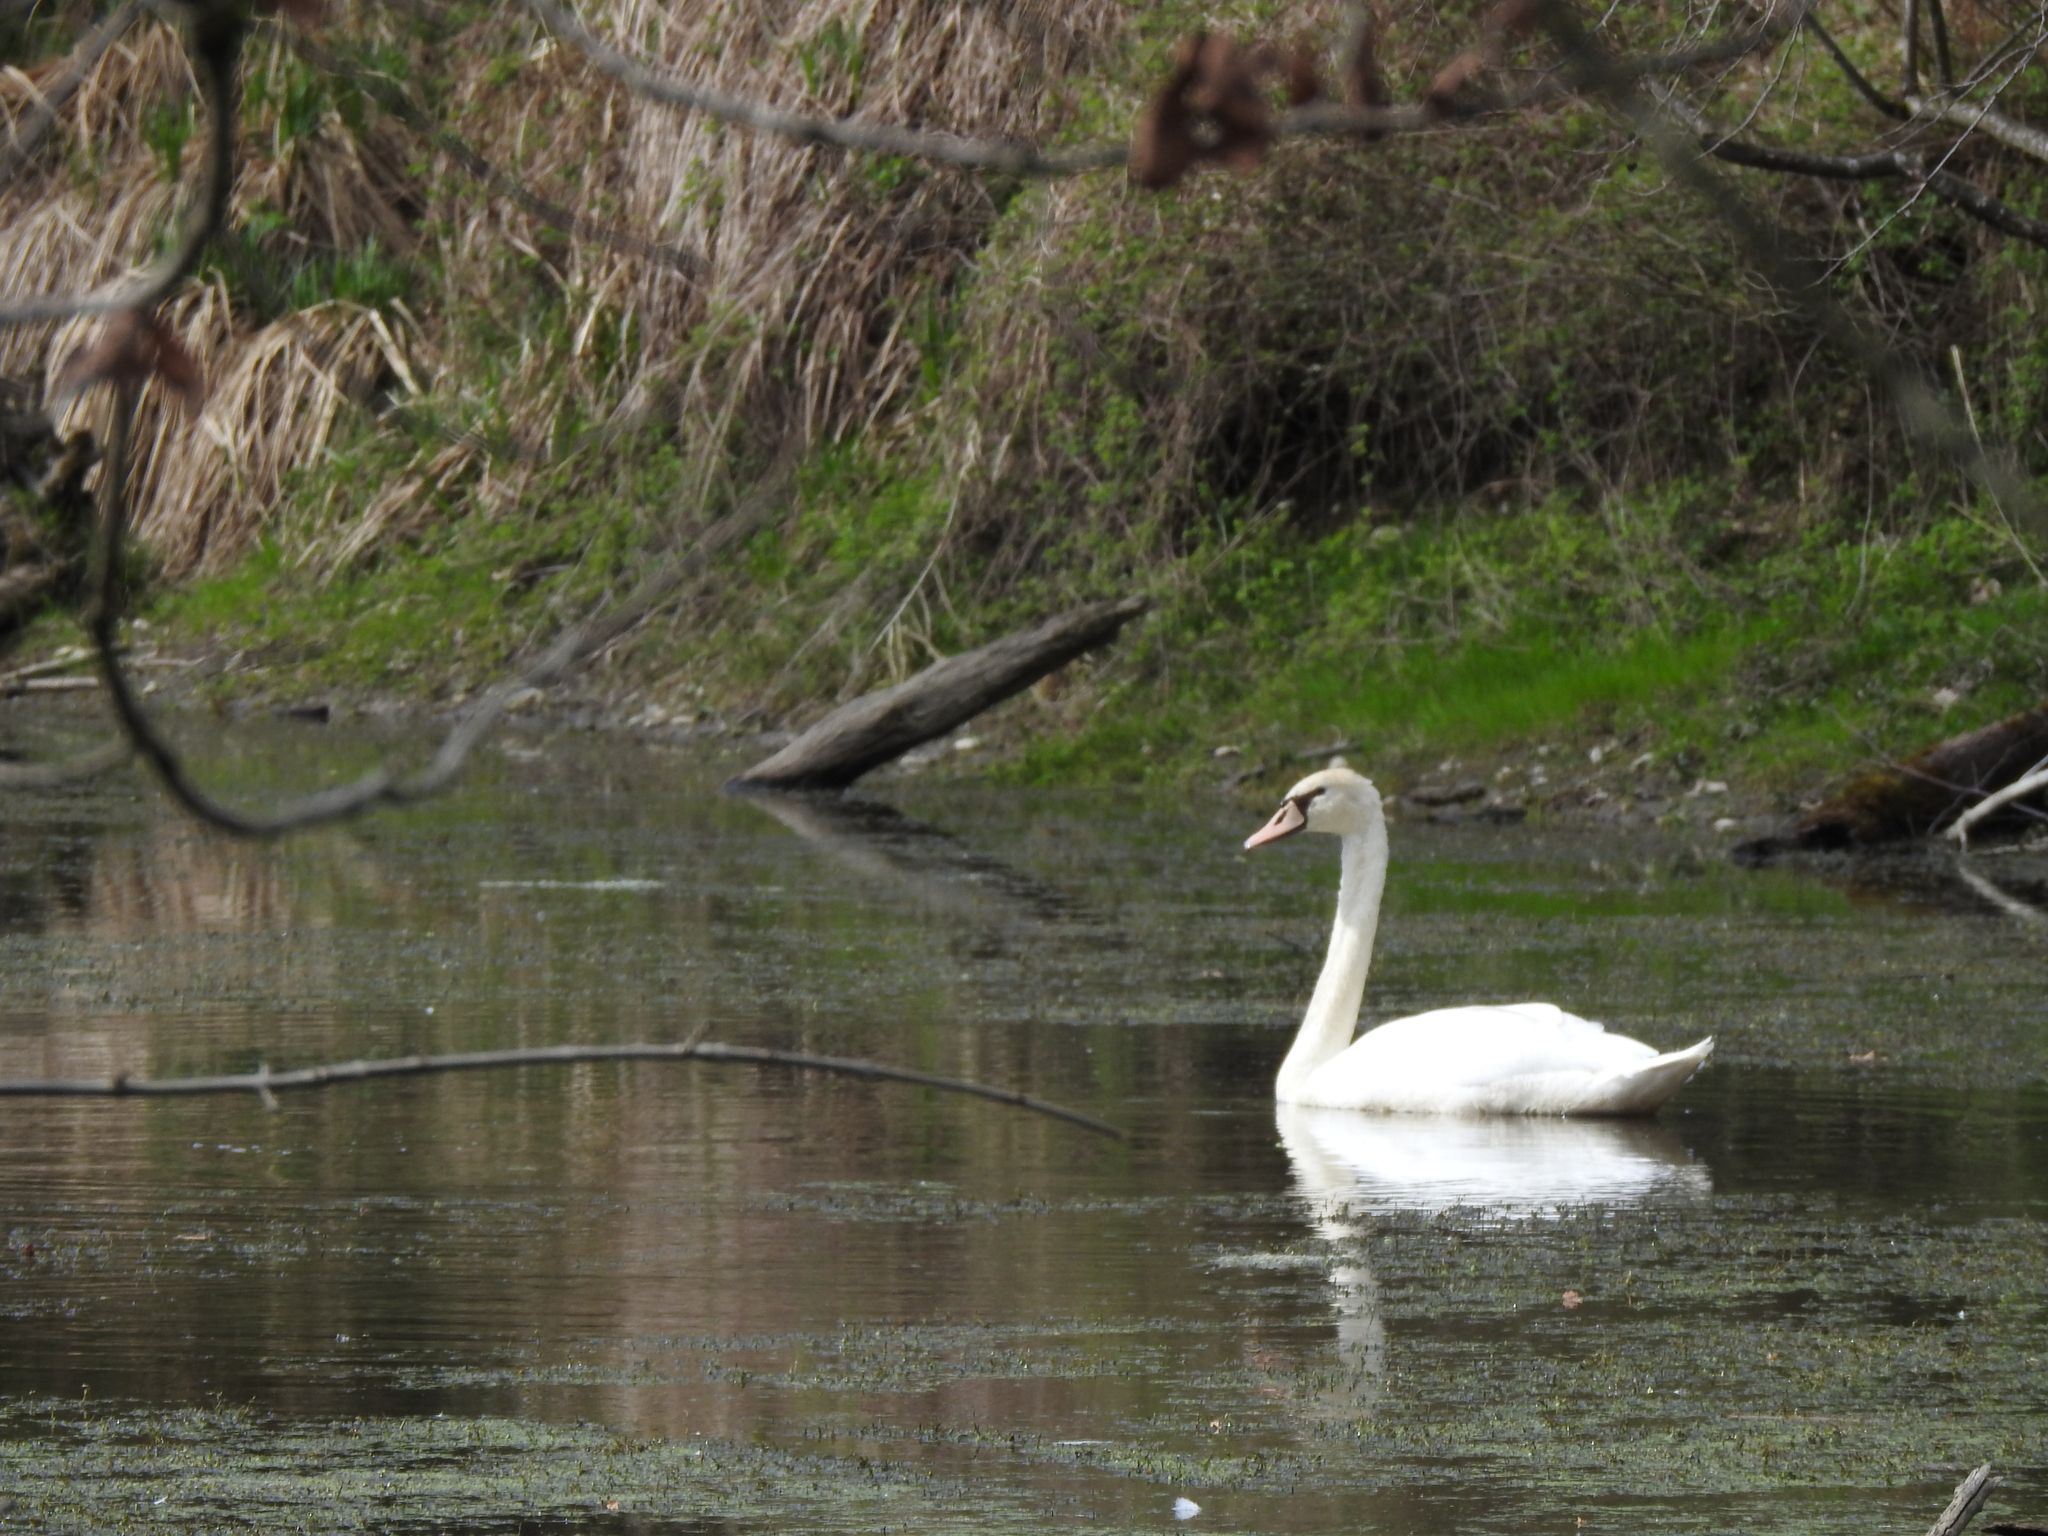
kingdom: Animalia
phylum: Chordata
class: Aves
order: Anseriformes
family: Anatidae
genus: Cygnus
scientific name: Cygnus olor
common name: Mute swan
